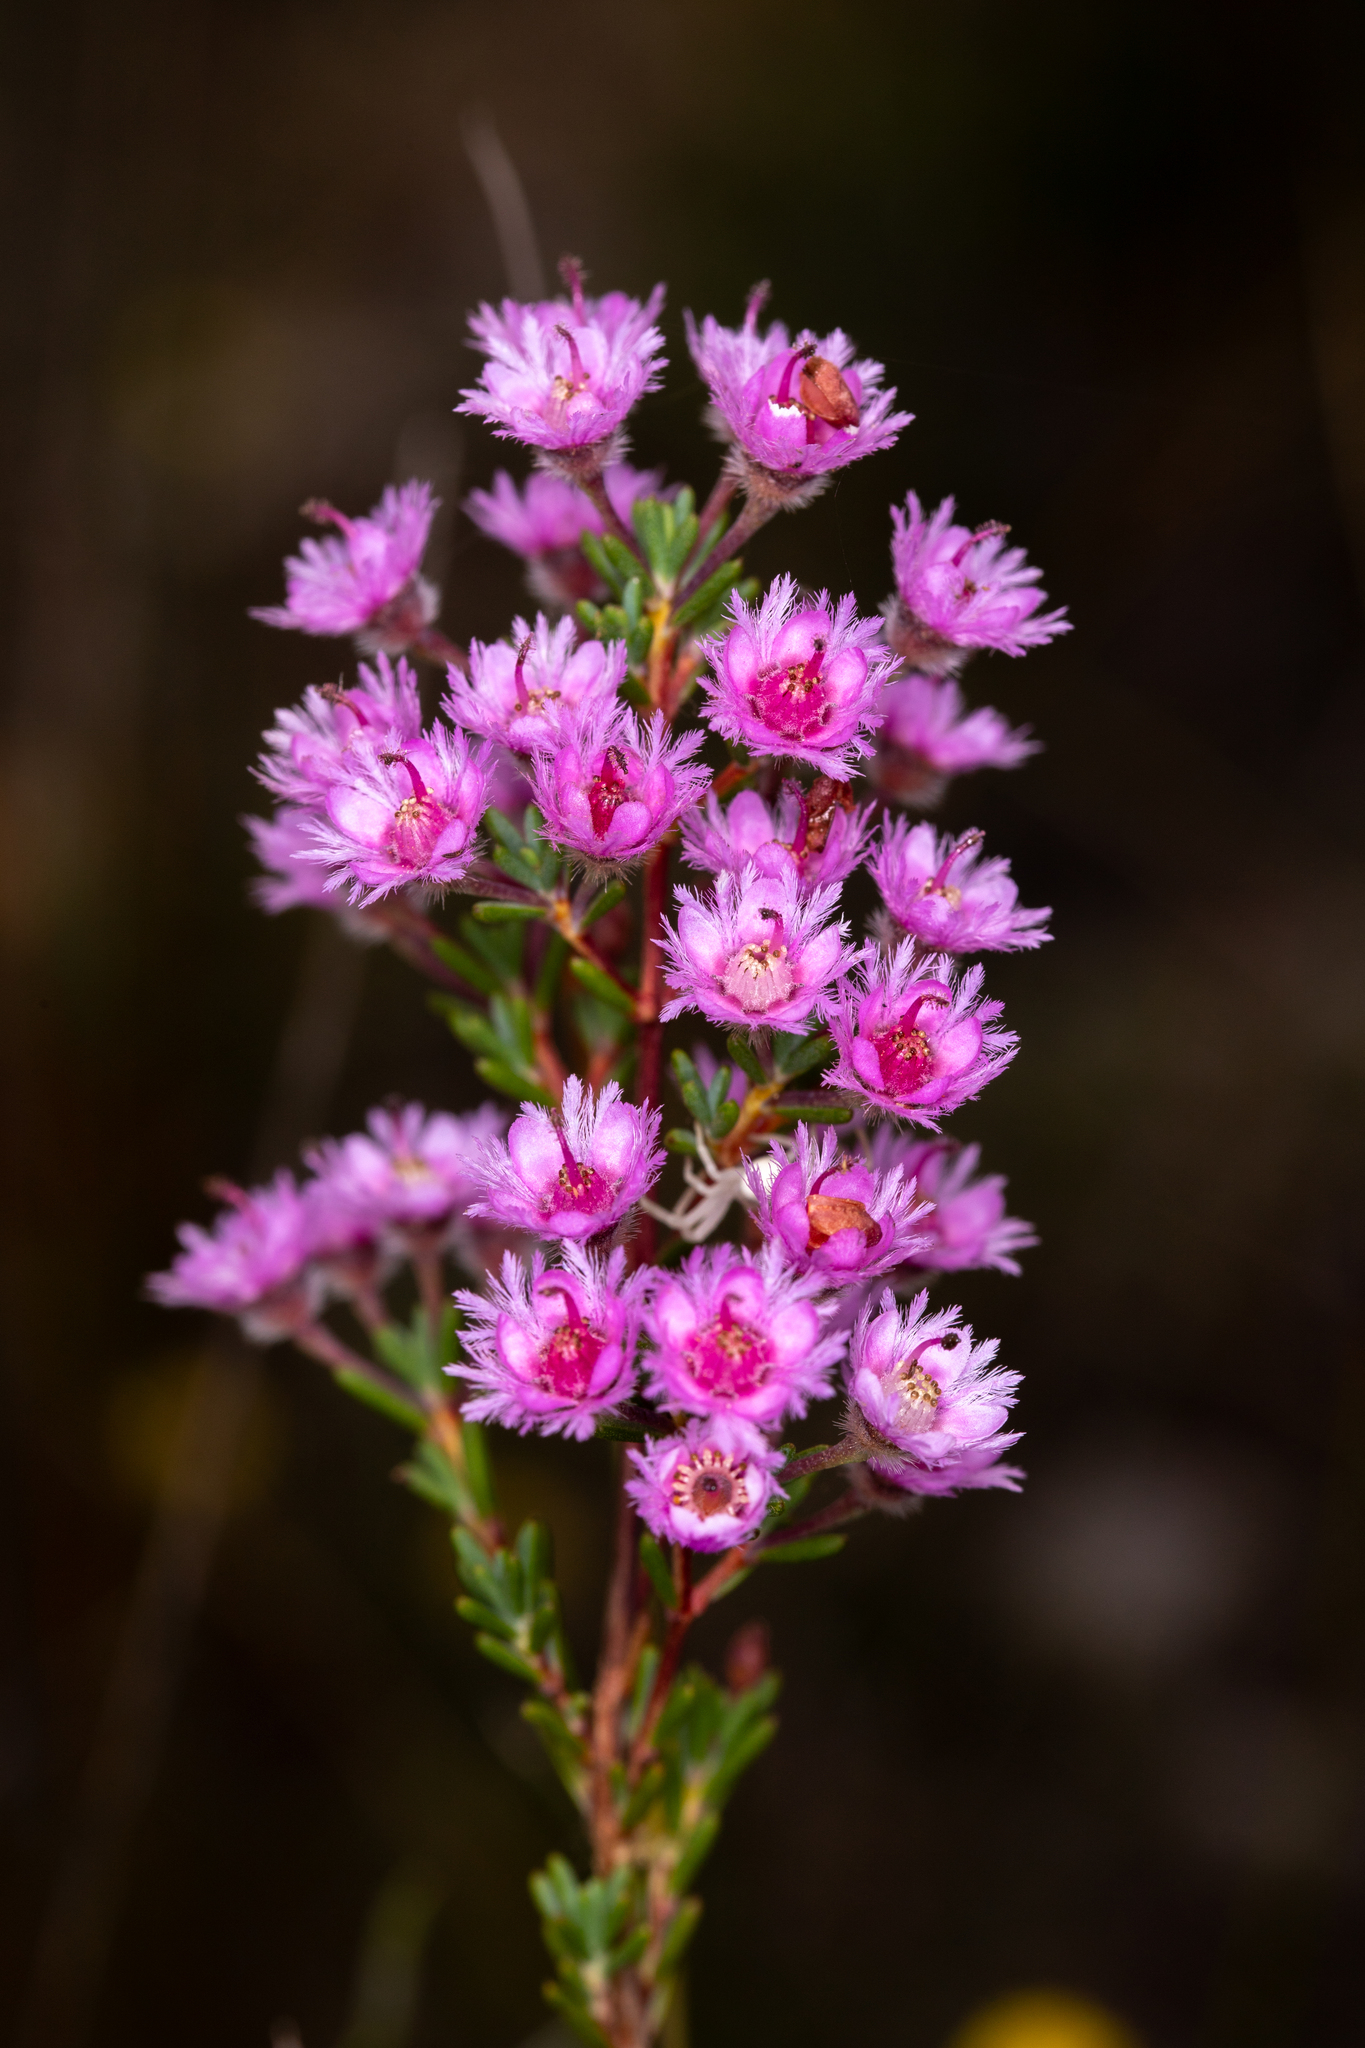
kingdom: Plantae
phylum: Tracheophyta
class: Magnoliopsida
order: Myrtales
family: Myrtaceae
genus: Verticordia
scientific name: Verticordia plumosa
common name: Plume feather-flower
